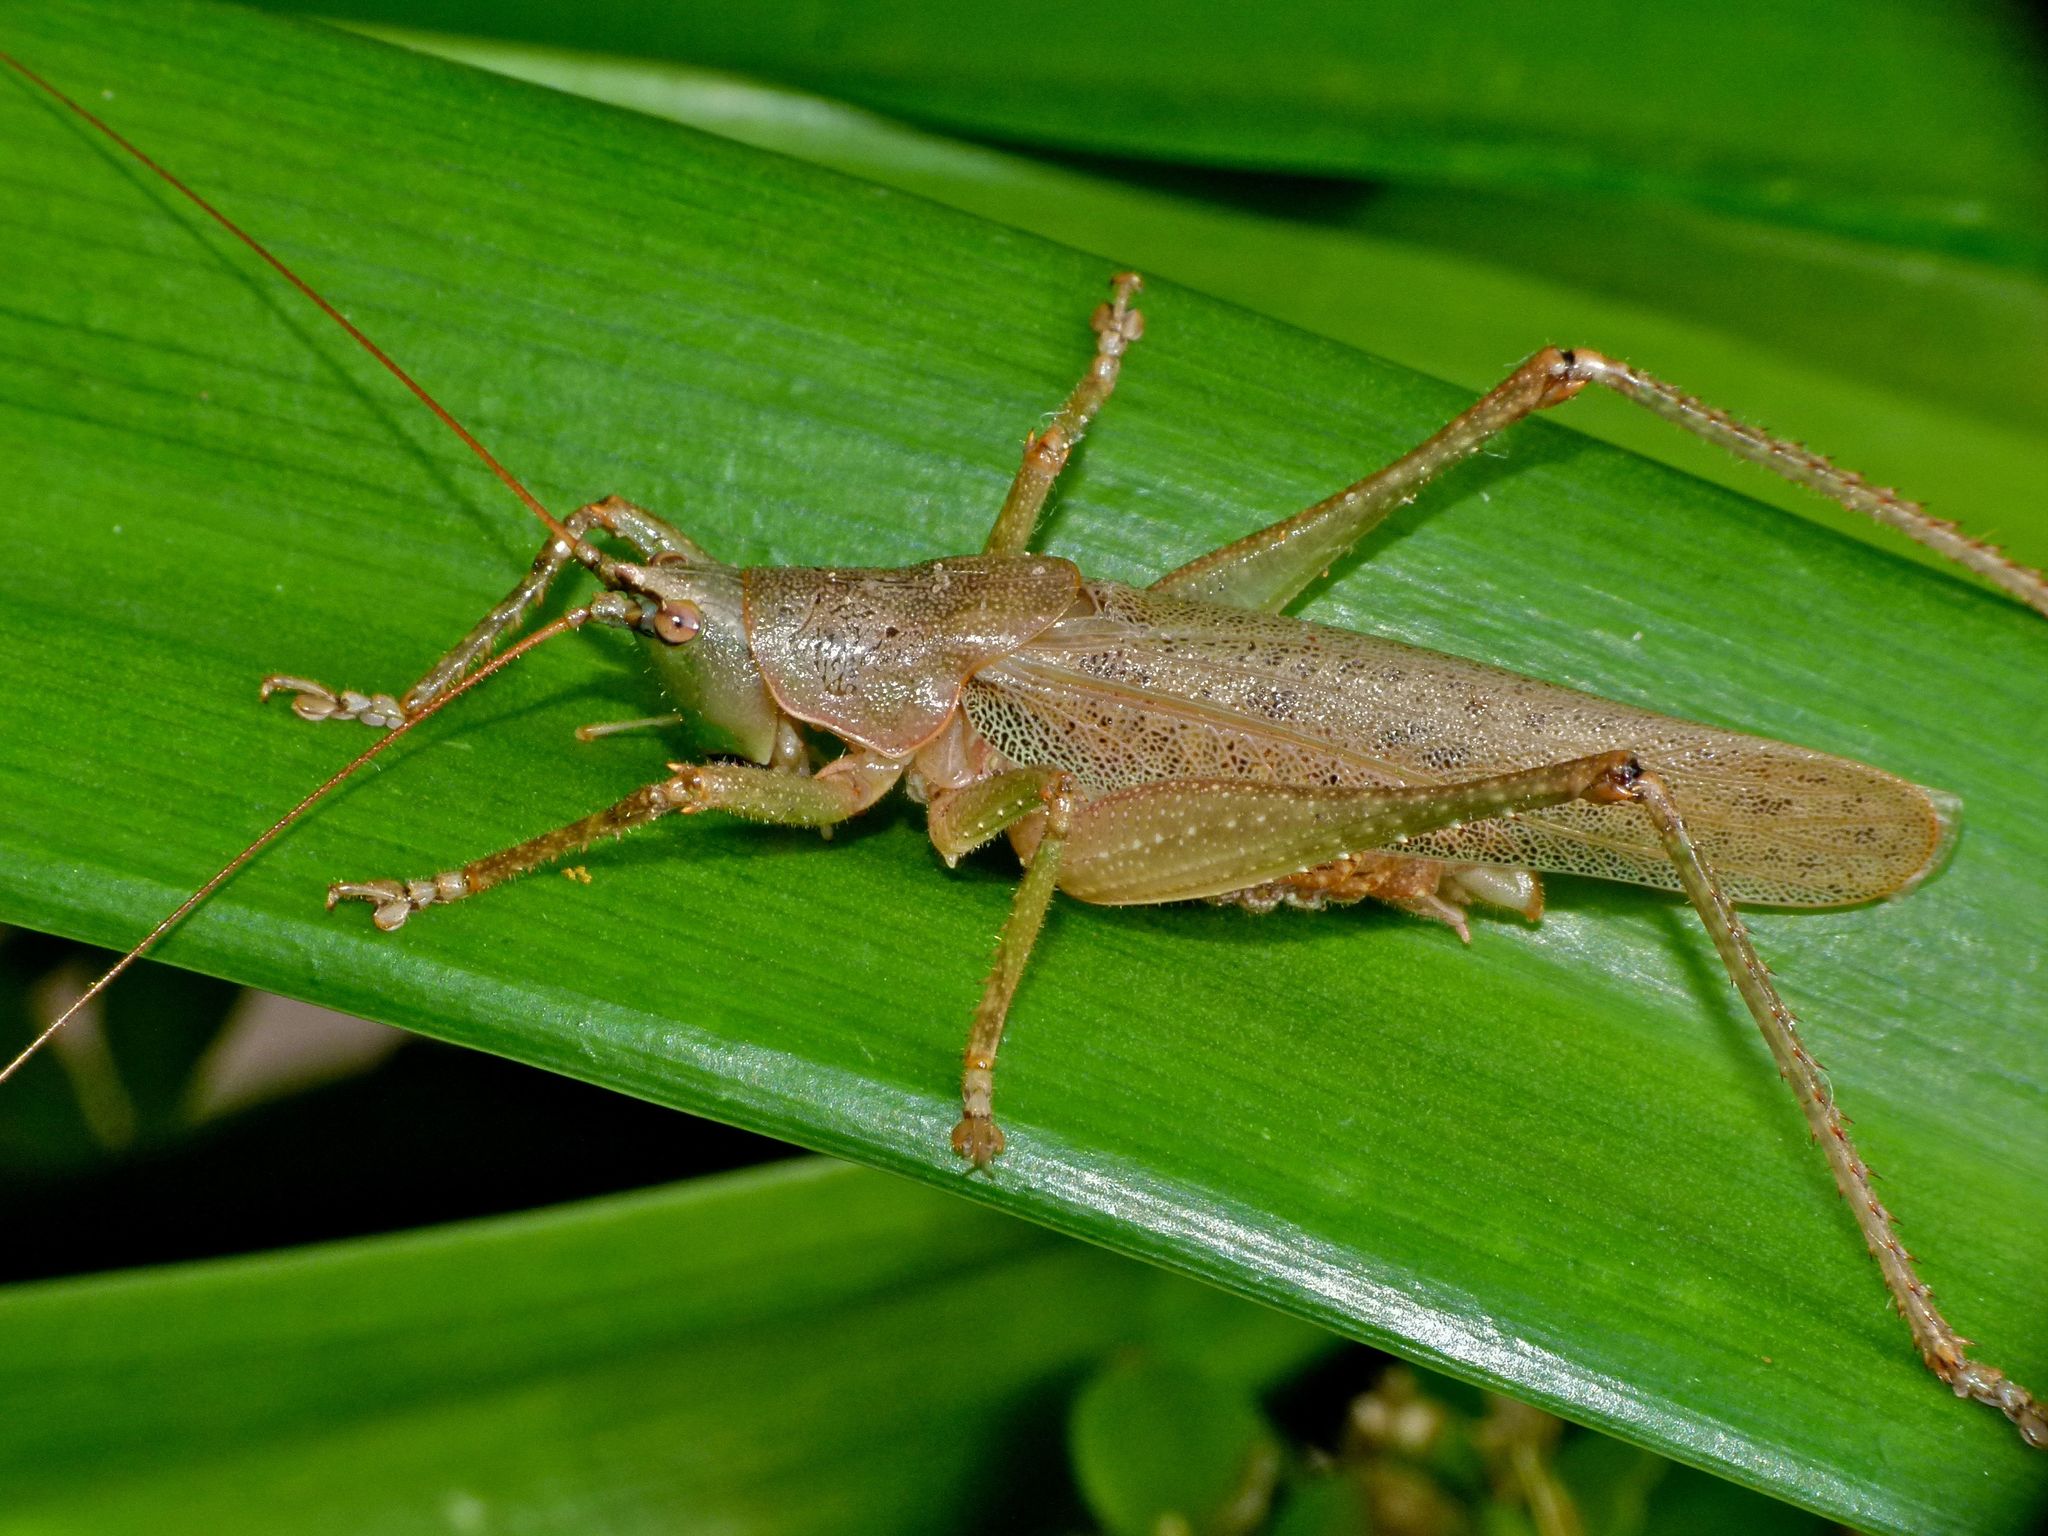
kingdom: Animalia
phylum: Arthropoda
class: Insecta
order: Orthoptera
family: Tettigoniidae
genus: Austrosalomona
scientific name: Austrosalomona falcata
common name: Olive-green coastal katydid
